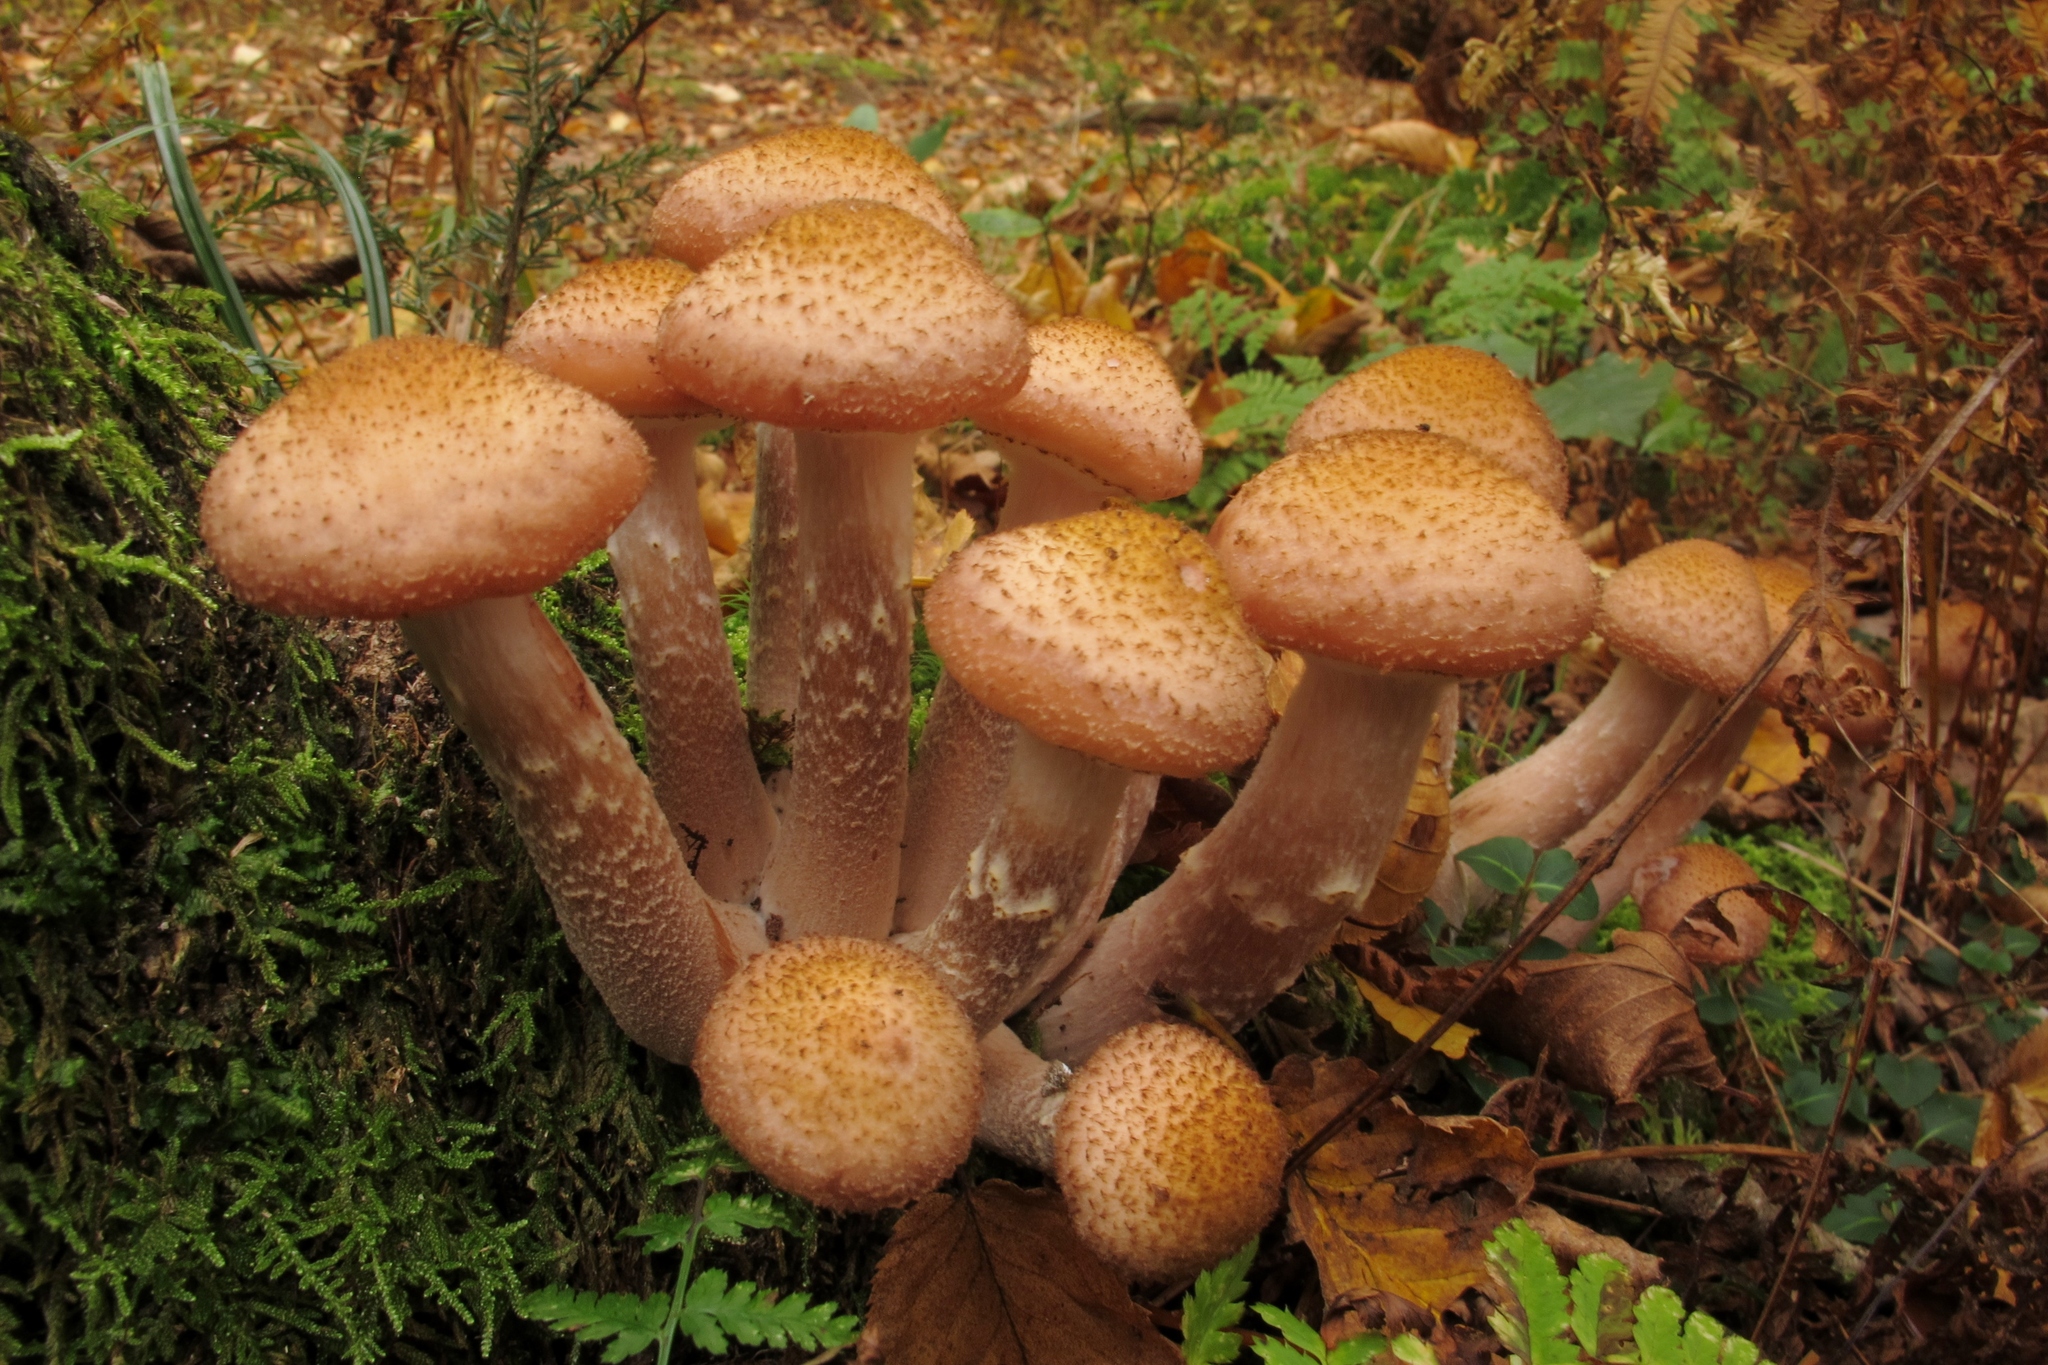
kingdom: Fungi
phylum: Basidiomycota
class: Agaricomycetes
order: Agaricales
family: Physalacriaceae
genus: Armillaria
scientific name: Armillaria ostoyae
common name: Dark honey fungus
